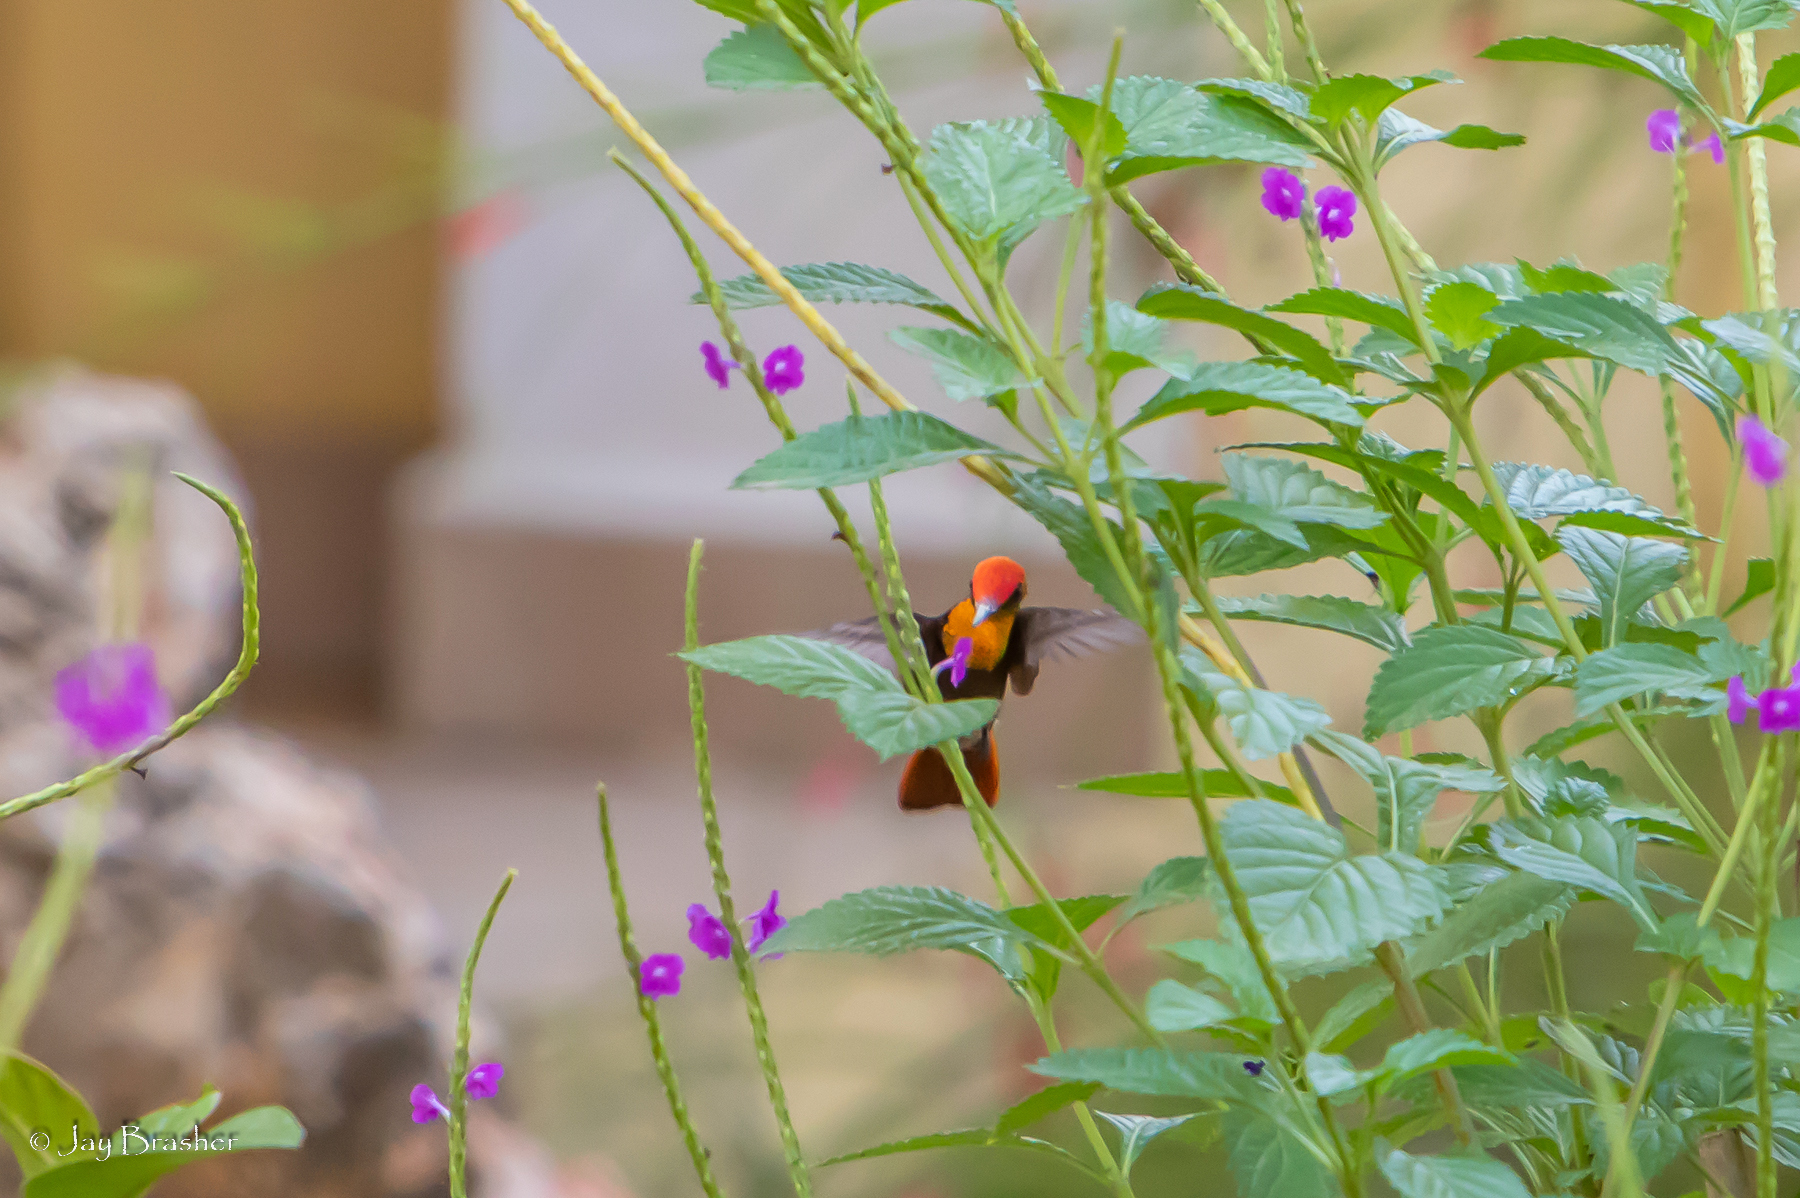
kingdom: Animalia
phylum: Chordata
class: Aves
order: Apodiformes
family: Trochilidae
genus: Chrysolampis
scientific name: Chrysolampis mosquitus
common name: Ruby-topaz hummingbird
